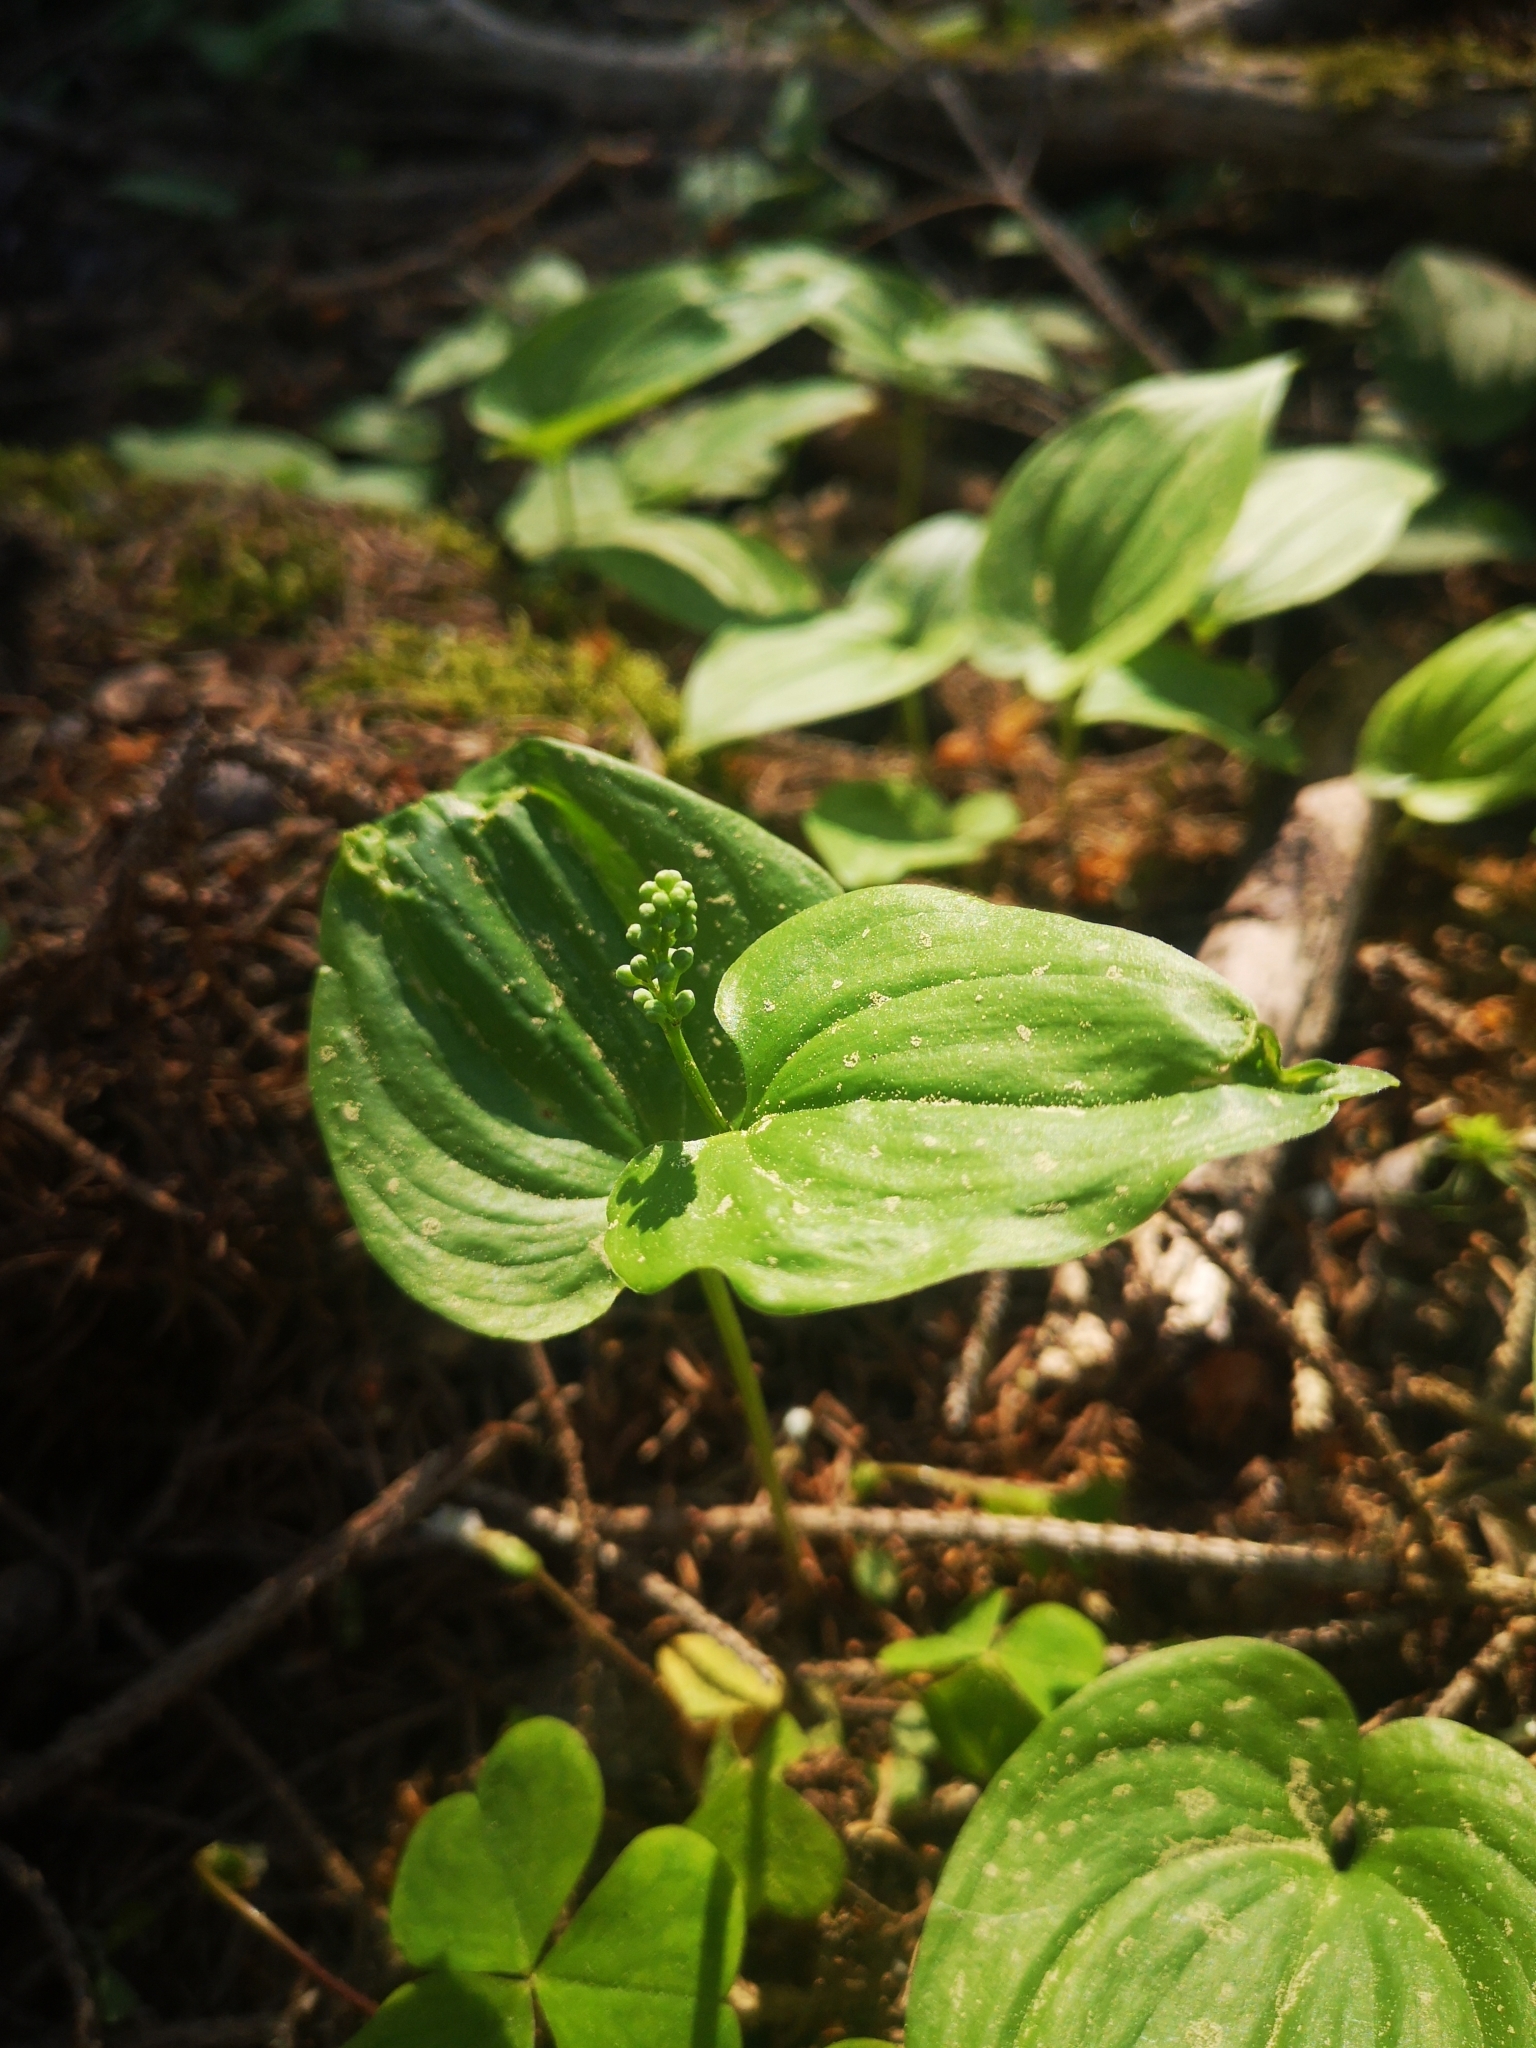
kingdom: Plantae
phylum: Tracheophyta
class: Liliopsida
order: Asparagales
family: Asparagaceae
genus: Maianthemum
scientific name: Maianthemum bifolium
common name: May lily
